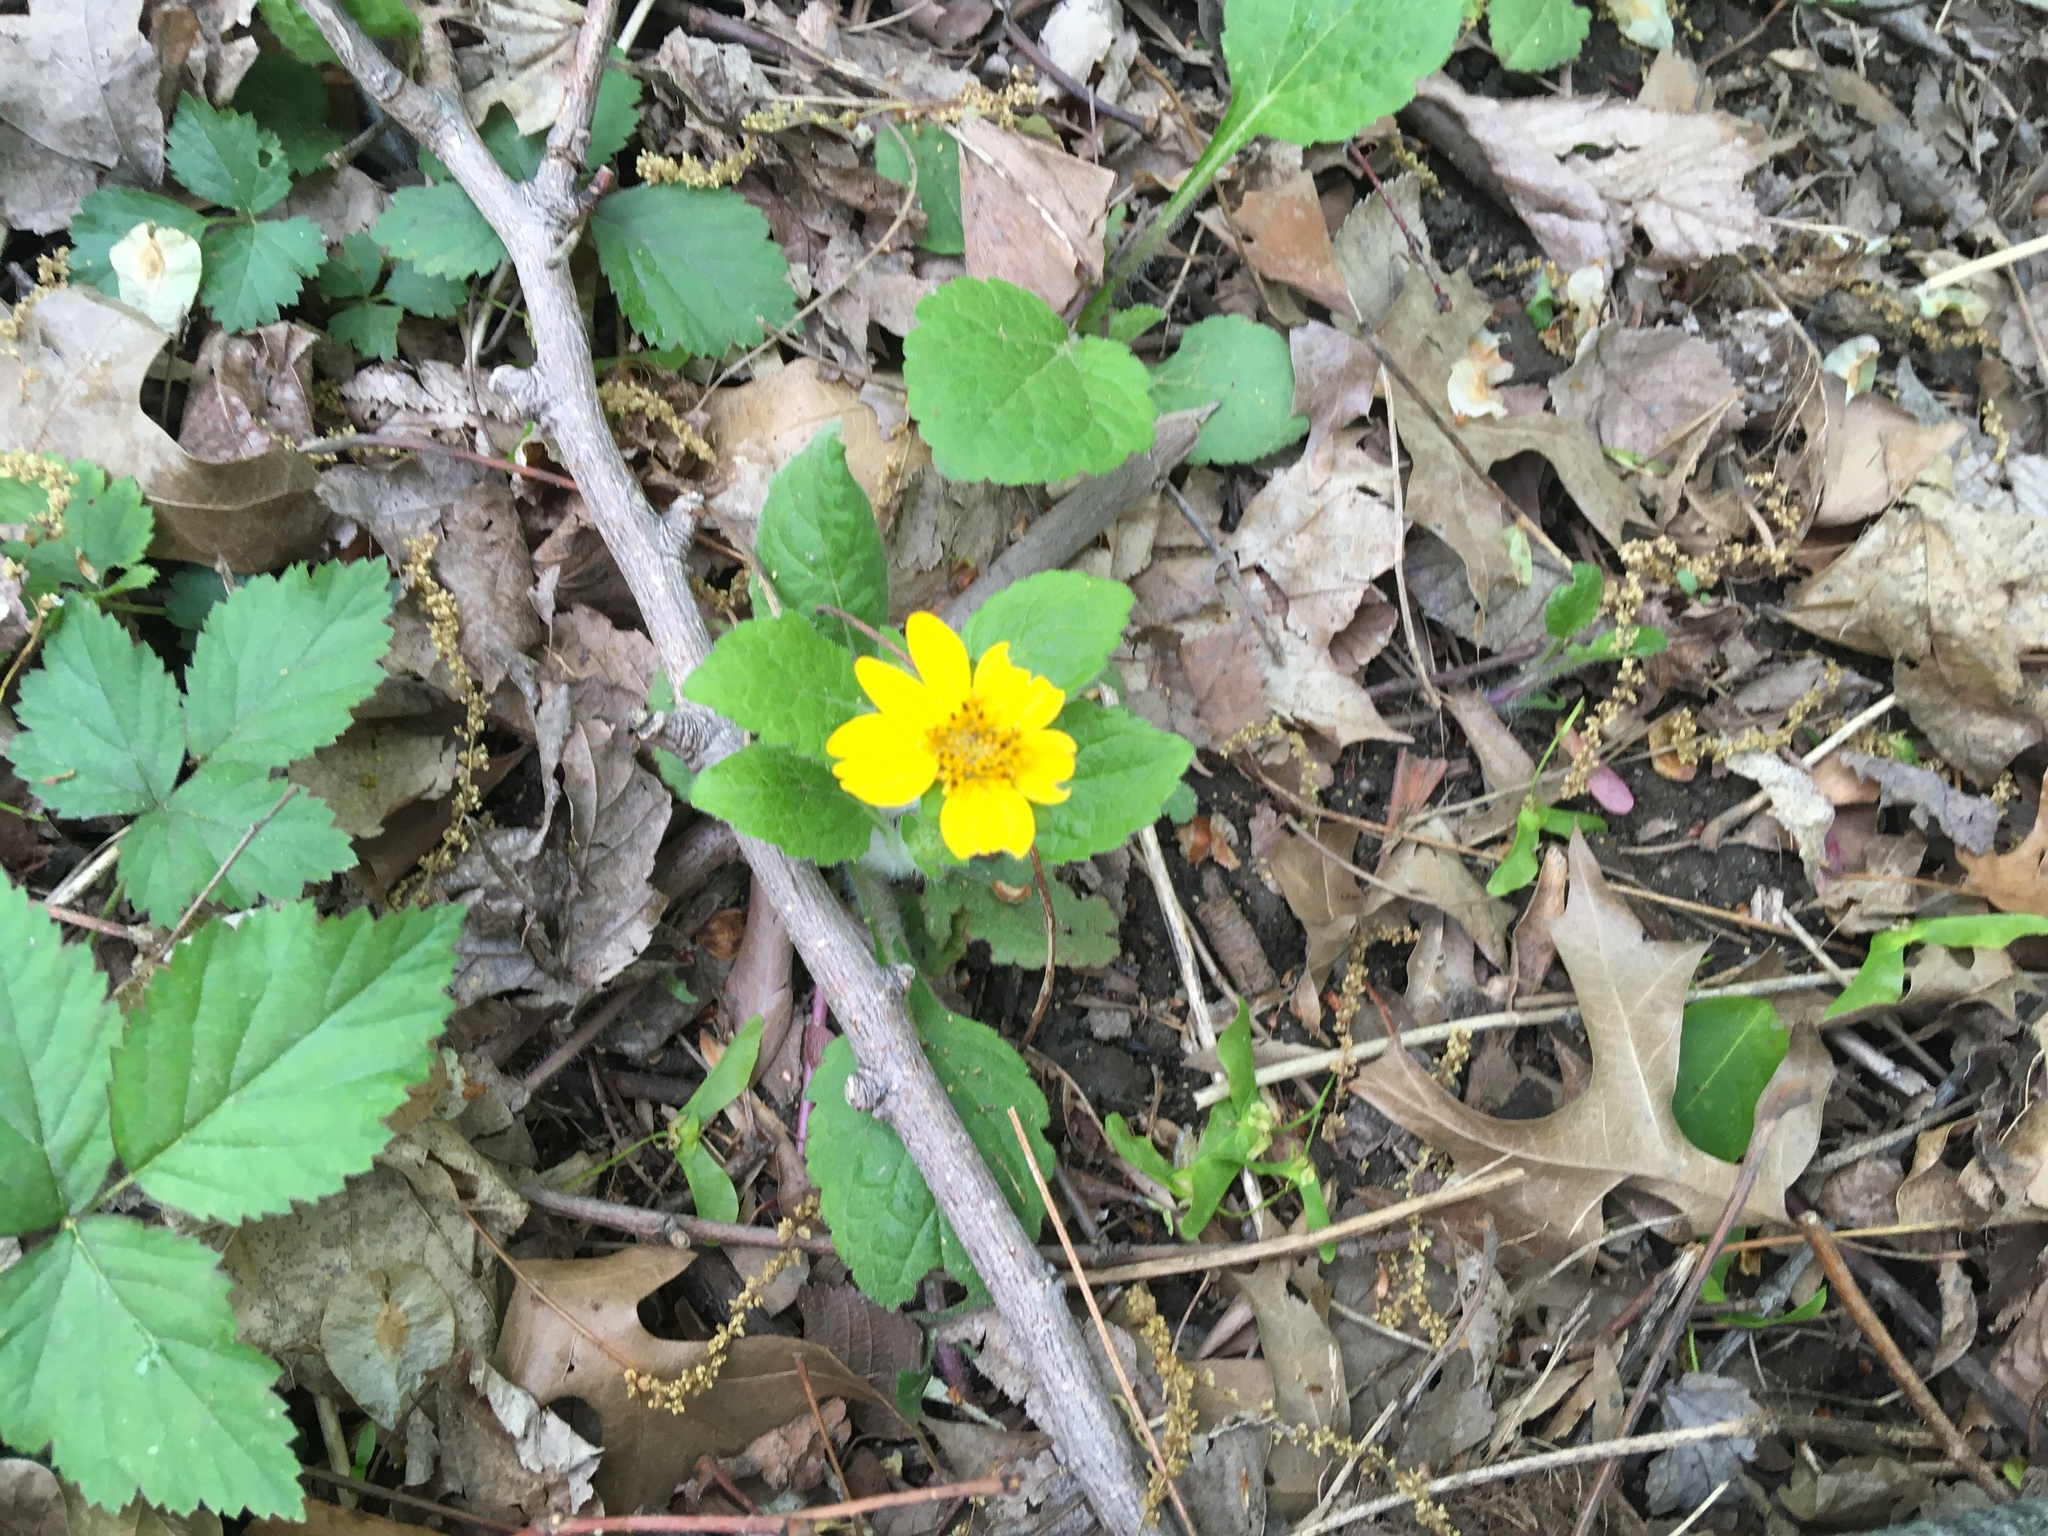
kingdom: Plantae
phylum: Tracheophyta
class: Magnoliopsida
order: Asterales
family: Asteraceae
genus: Chrysogonum
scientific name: Chrysogonum virginianum
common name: Golden-knee
